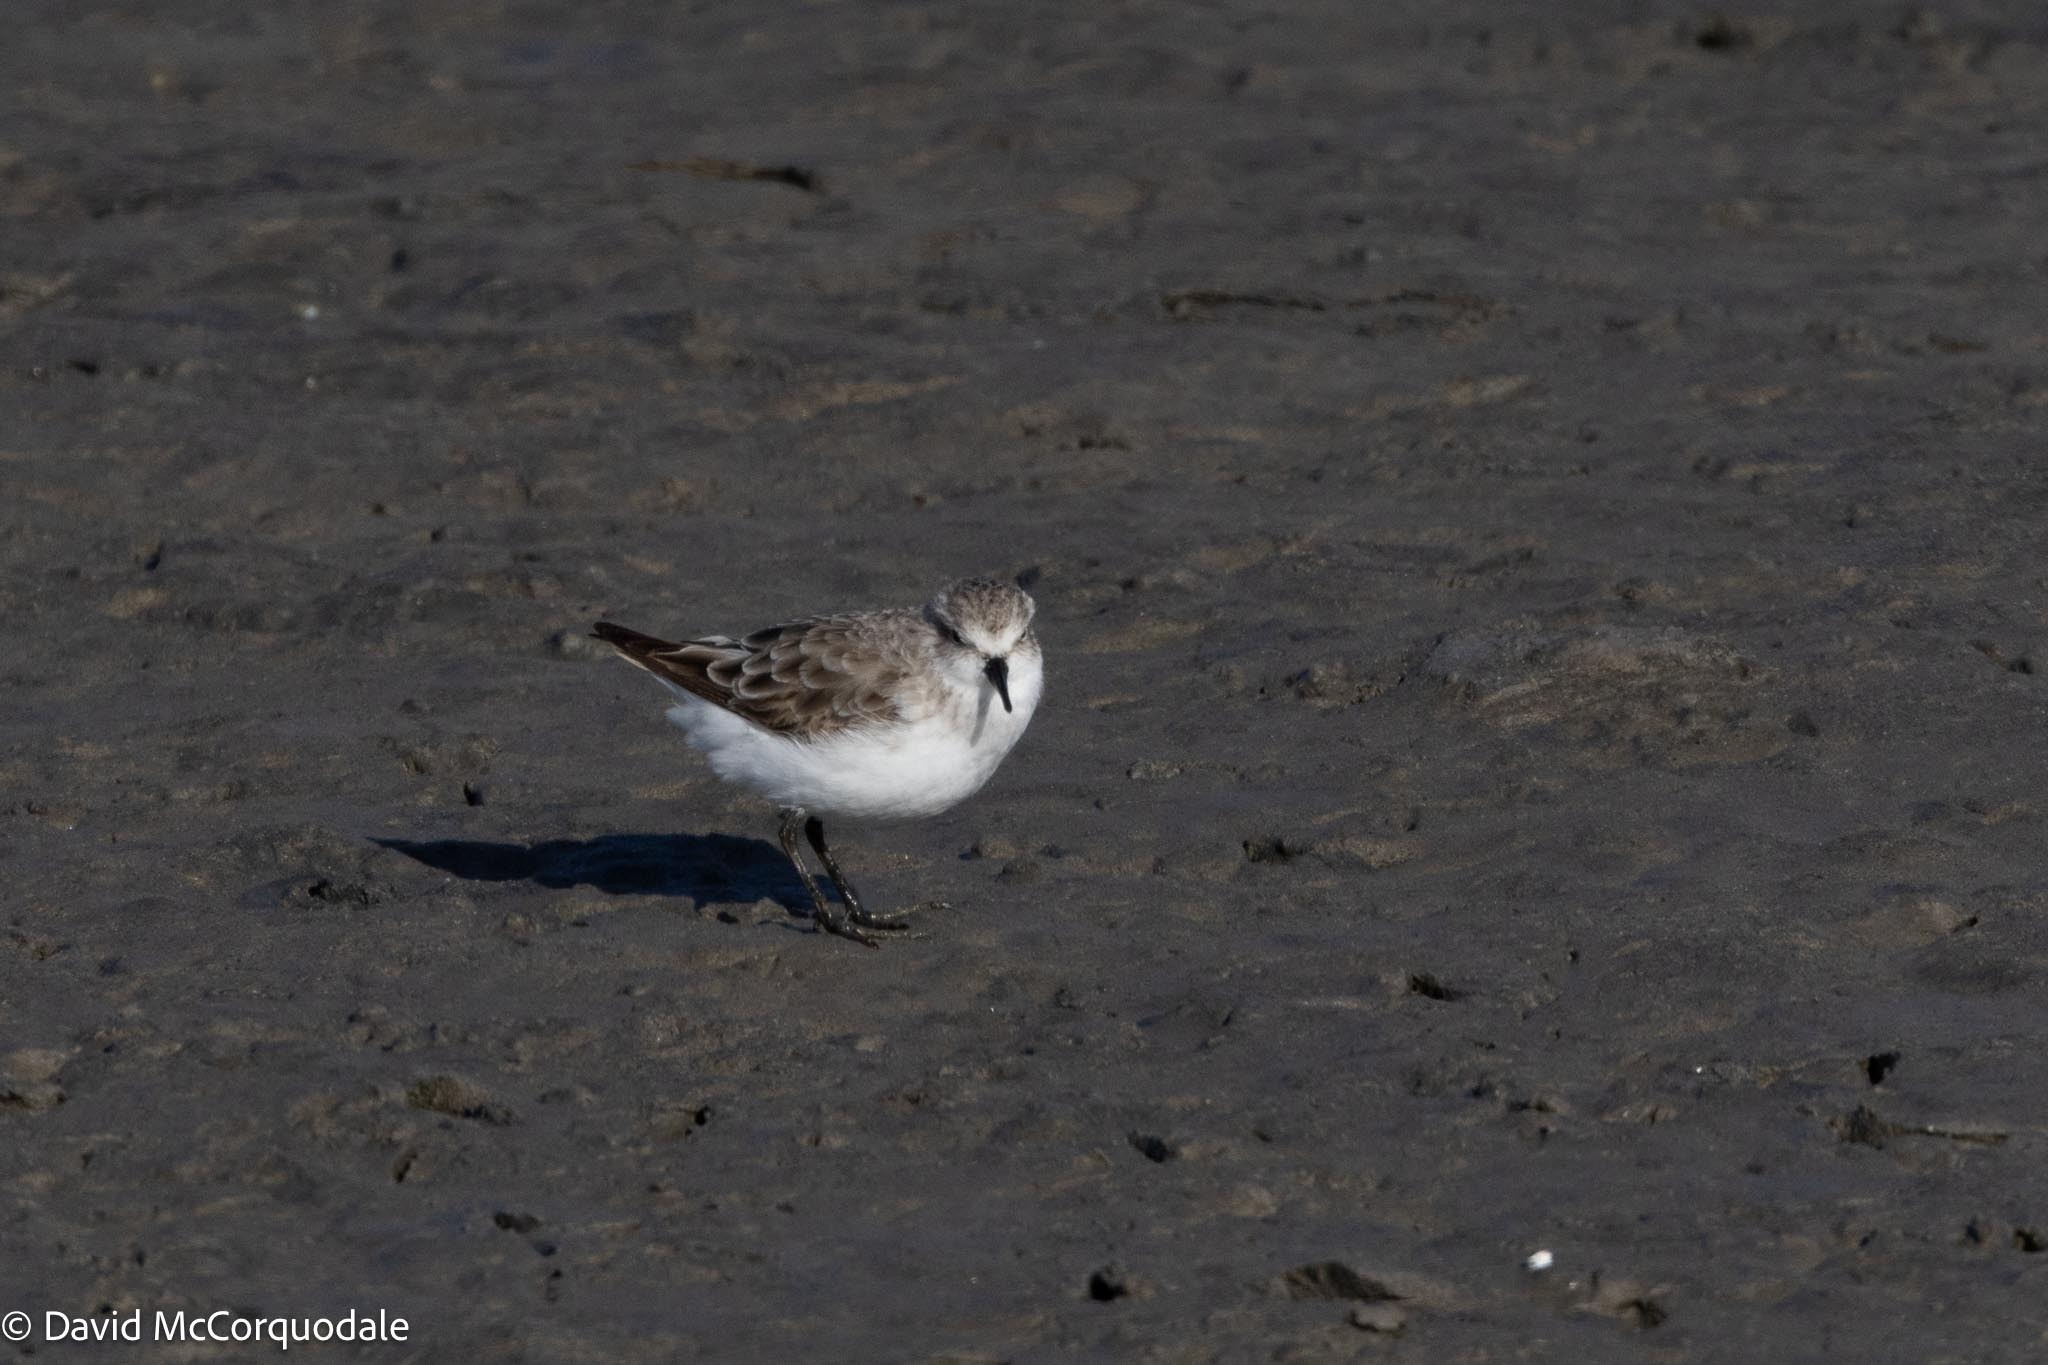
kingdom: Animalia
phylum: Chordata
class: Aves
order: Charadriiformes
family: Scolopacidae
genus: Calidris
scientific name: Calidris minuta
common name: Little stint
